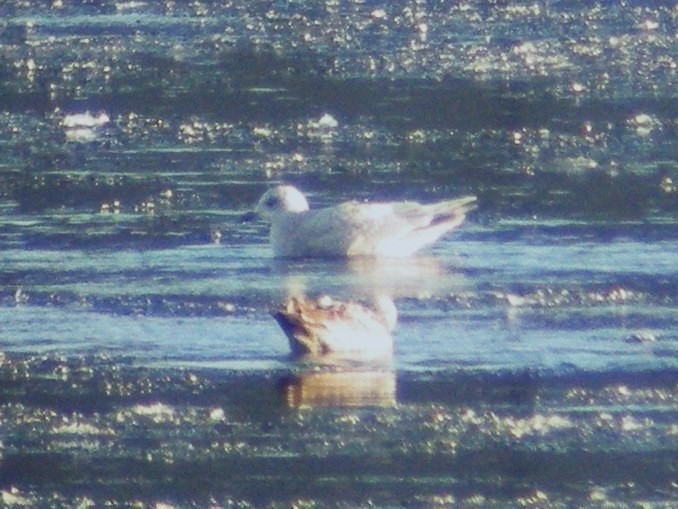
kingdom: Animalia
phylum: Chordata
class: Aves
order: Charadriiformes
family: Laridae
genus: Larus
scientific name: Larus glaucoides
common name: Iceland gull
